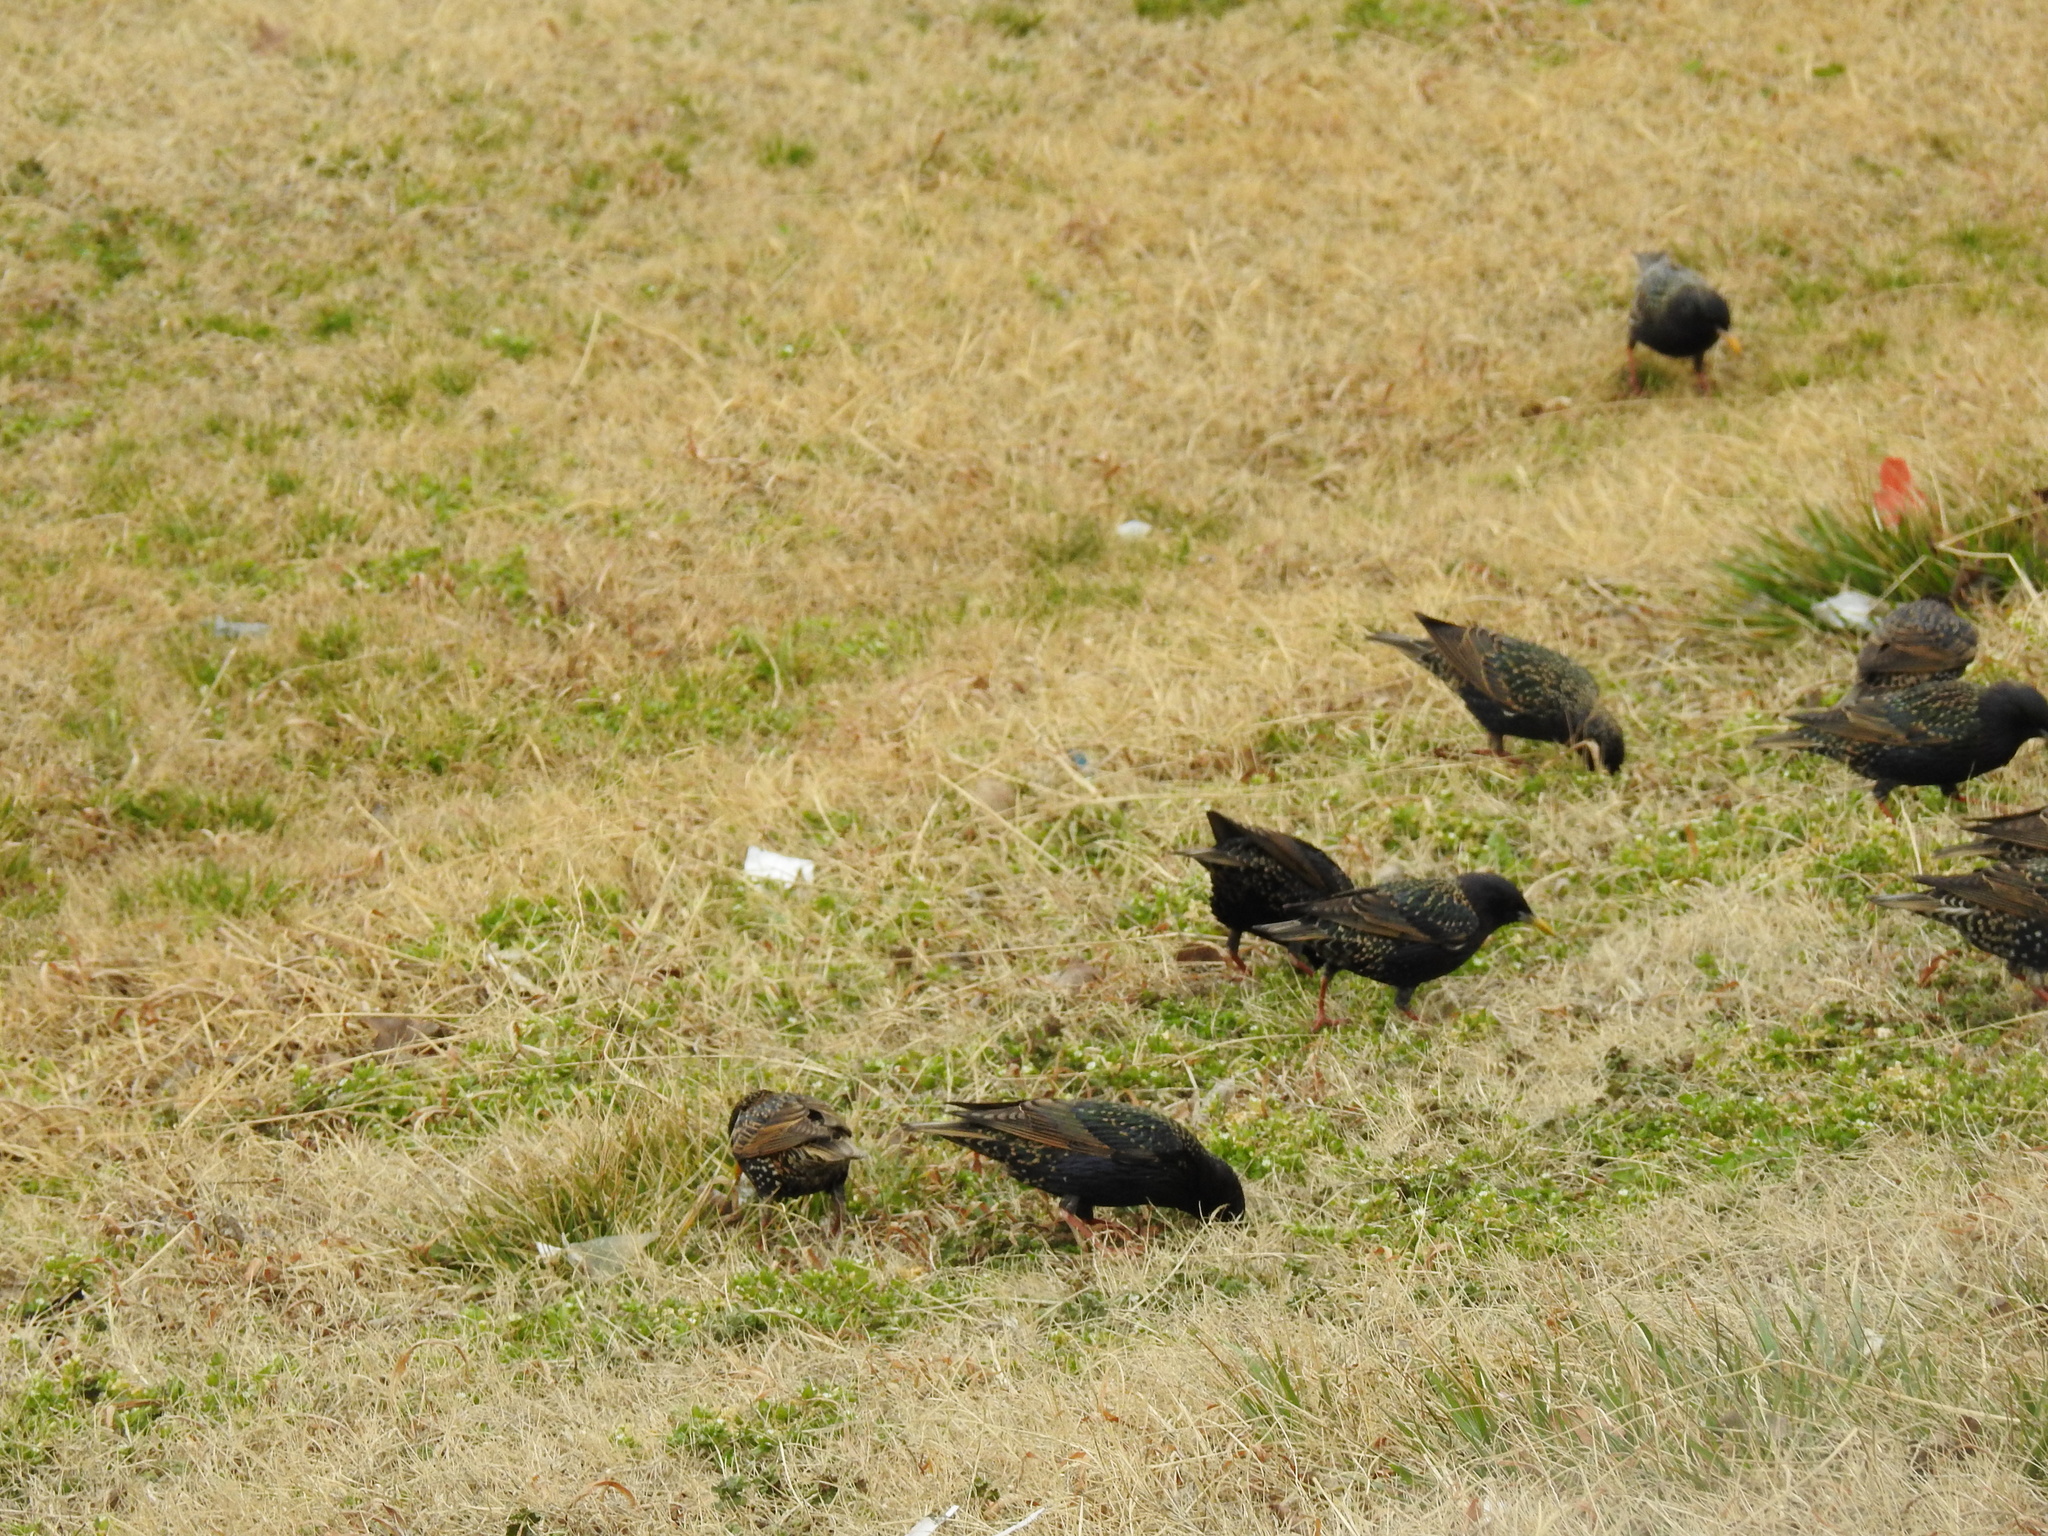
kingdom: Animalia
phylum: Chordata
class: Aves
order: Passeriformes
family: Sturnidae
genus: Sturnus
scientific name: Sturnus vulgaris
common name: Common starling
